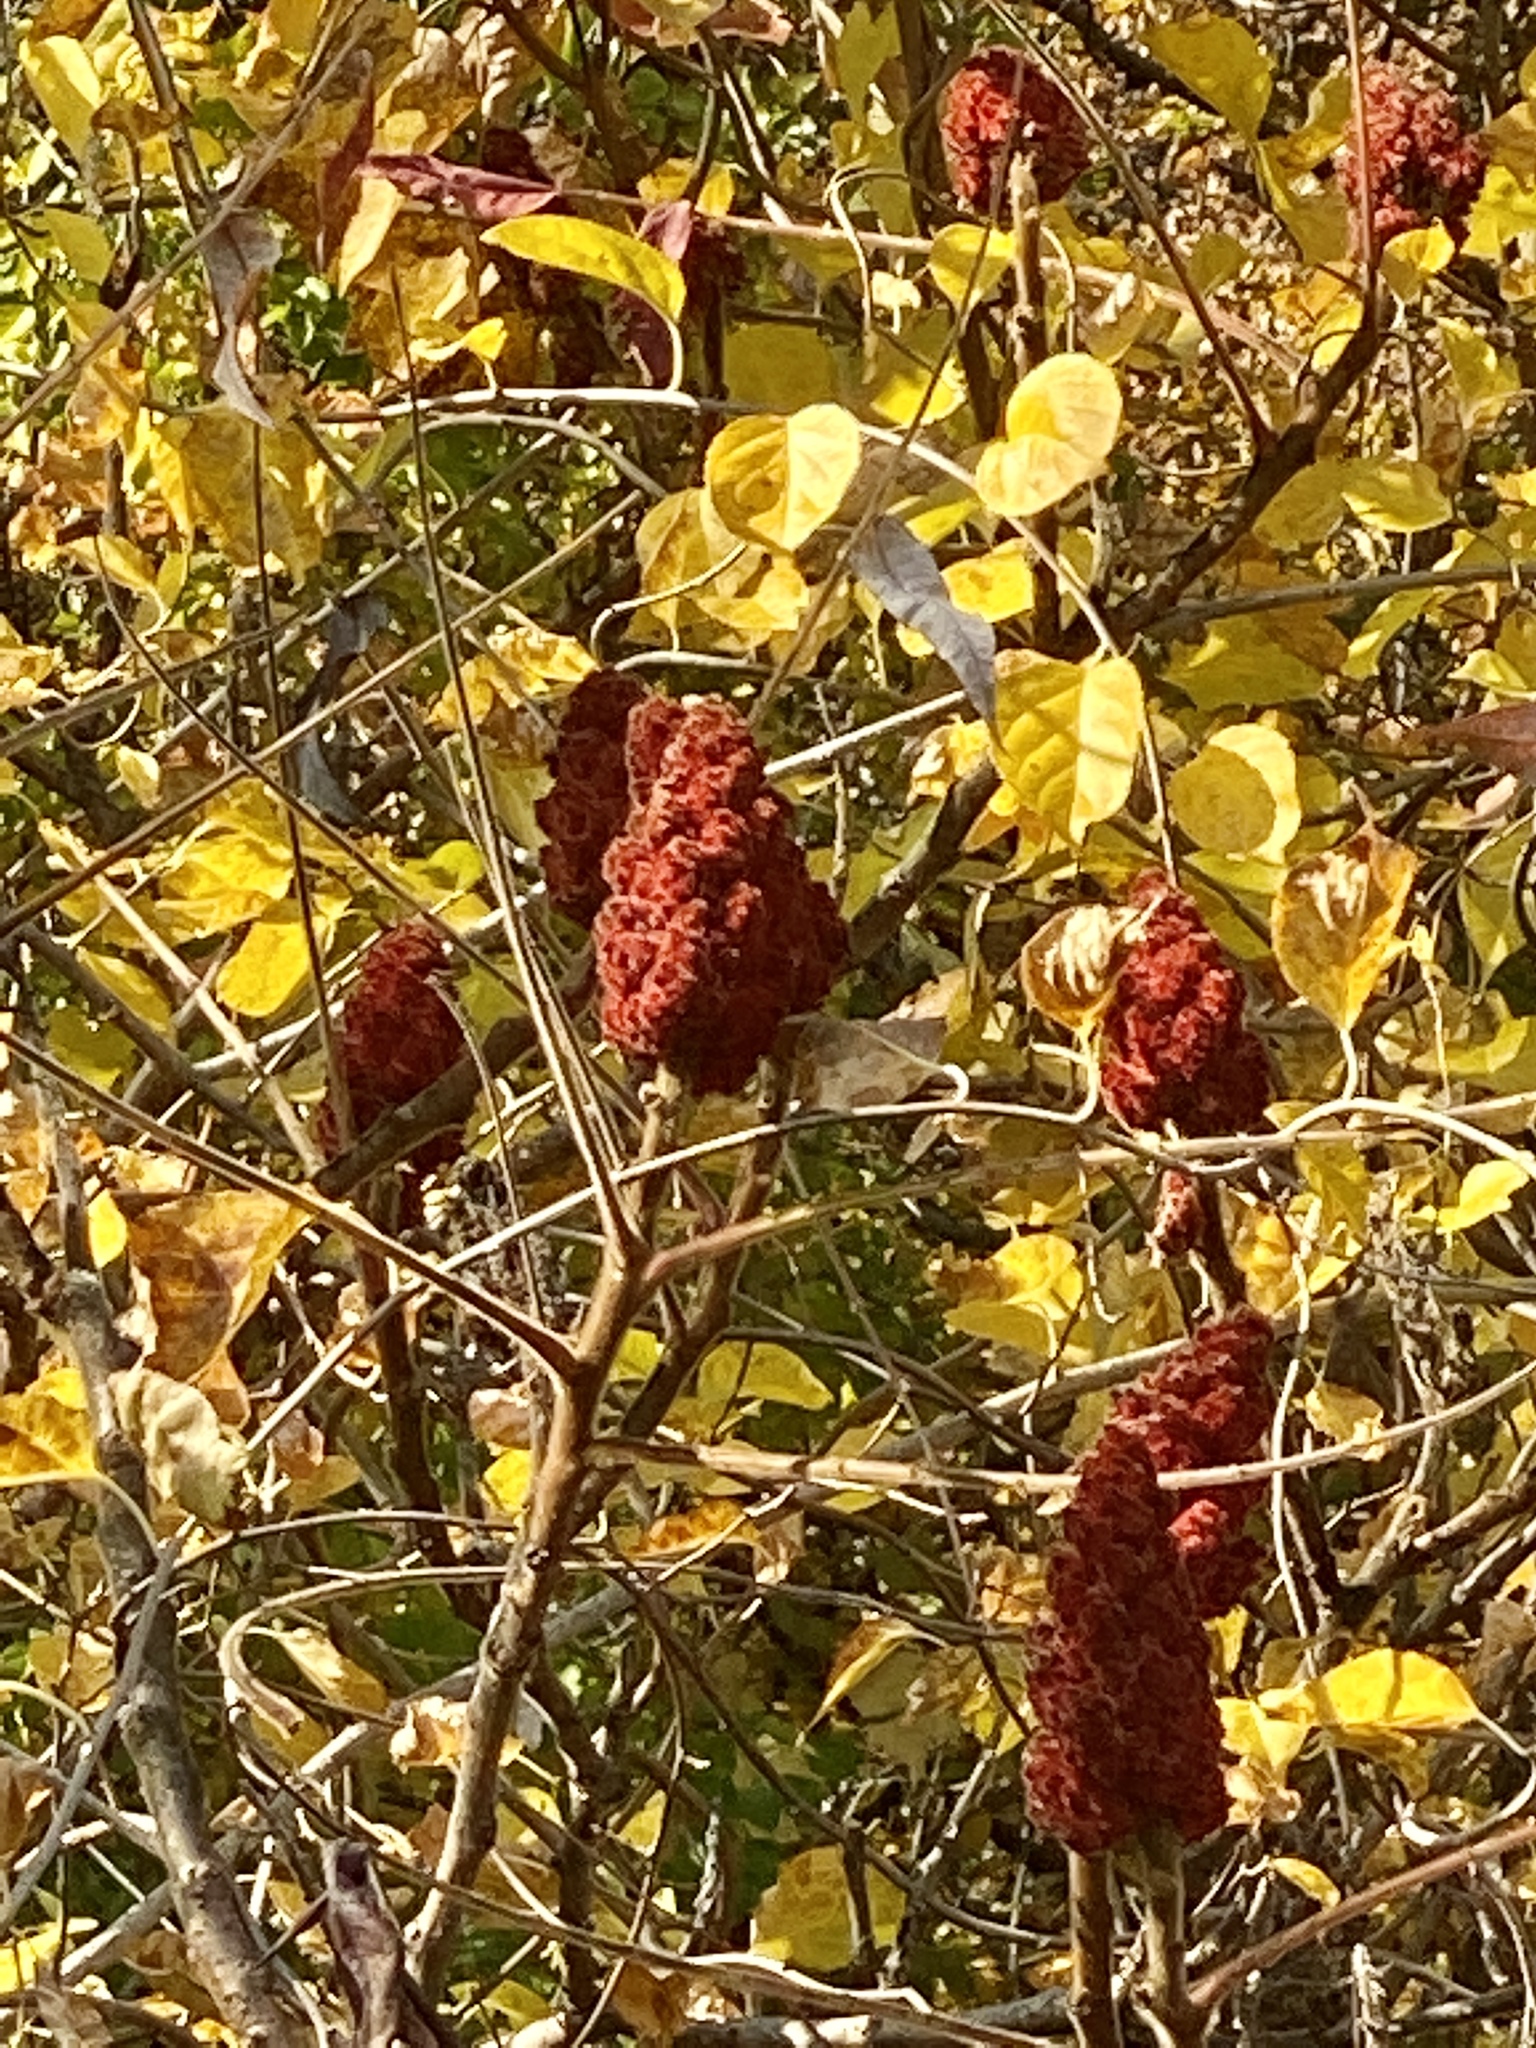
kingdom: Plantae
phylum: Tracheophyta
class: Magnoliopsida
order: Sapindales
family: Anacardiaceae
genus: Rhus
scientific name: Rhus typhina
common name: Staghorn sumac
